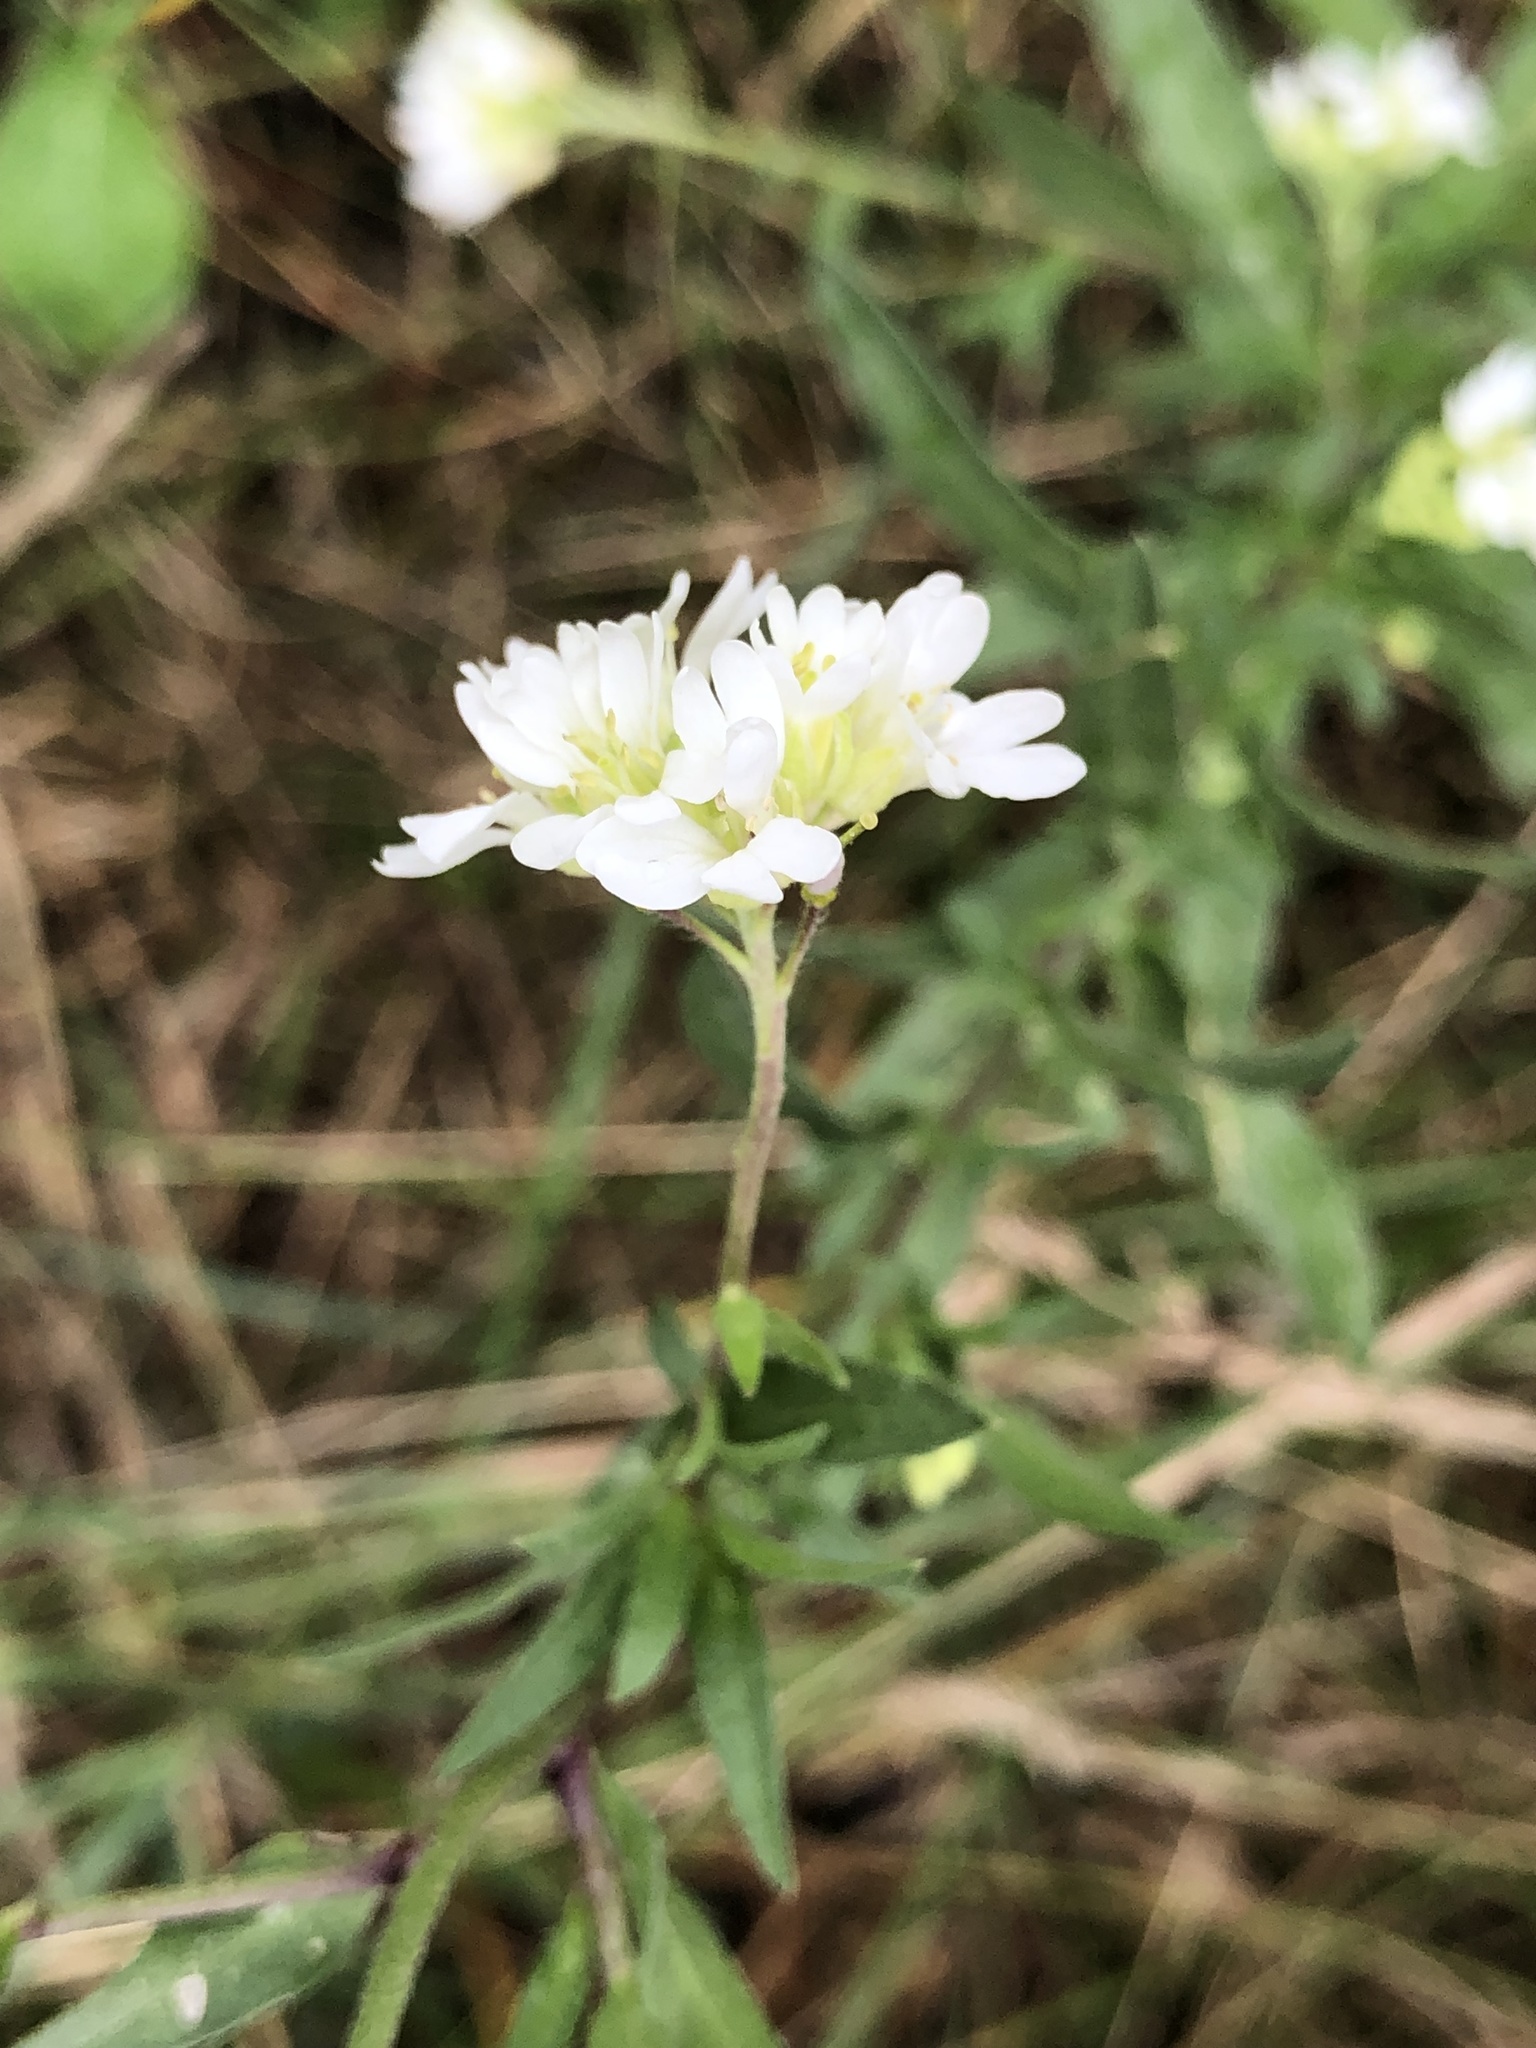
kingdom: Plantae
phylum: Tracheophyta
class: Magnoliopsida
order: Brassicales
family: Brassicaceae
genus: Berteroa
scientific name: Berteroa incana
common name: Hoary alison
